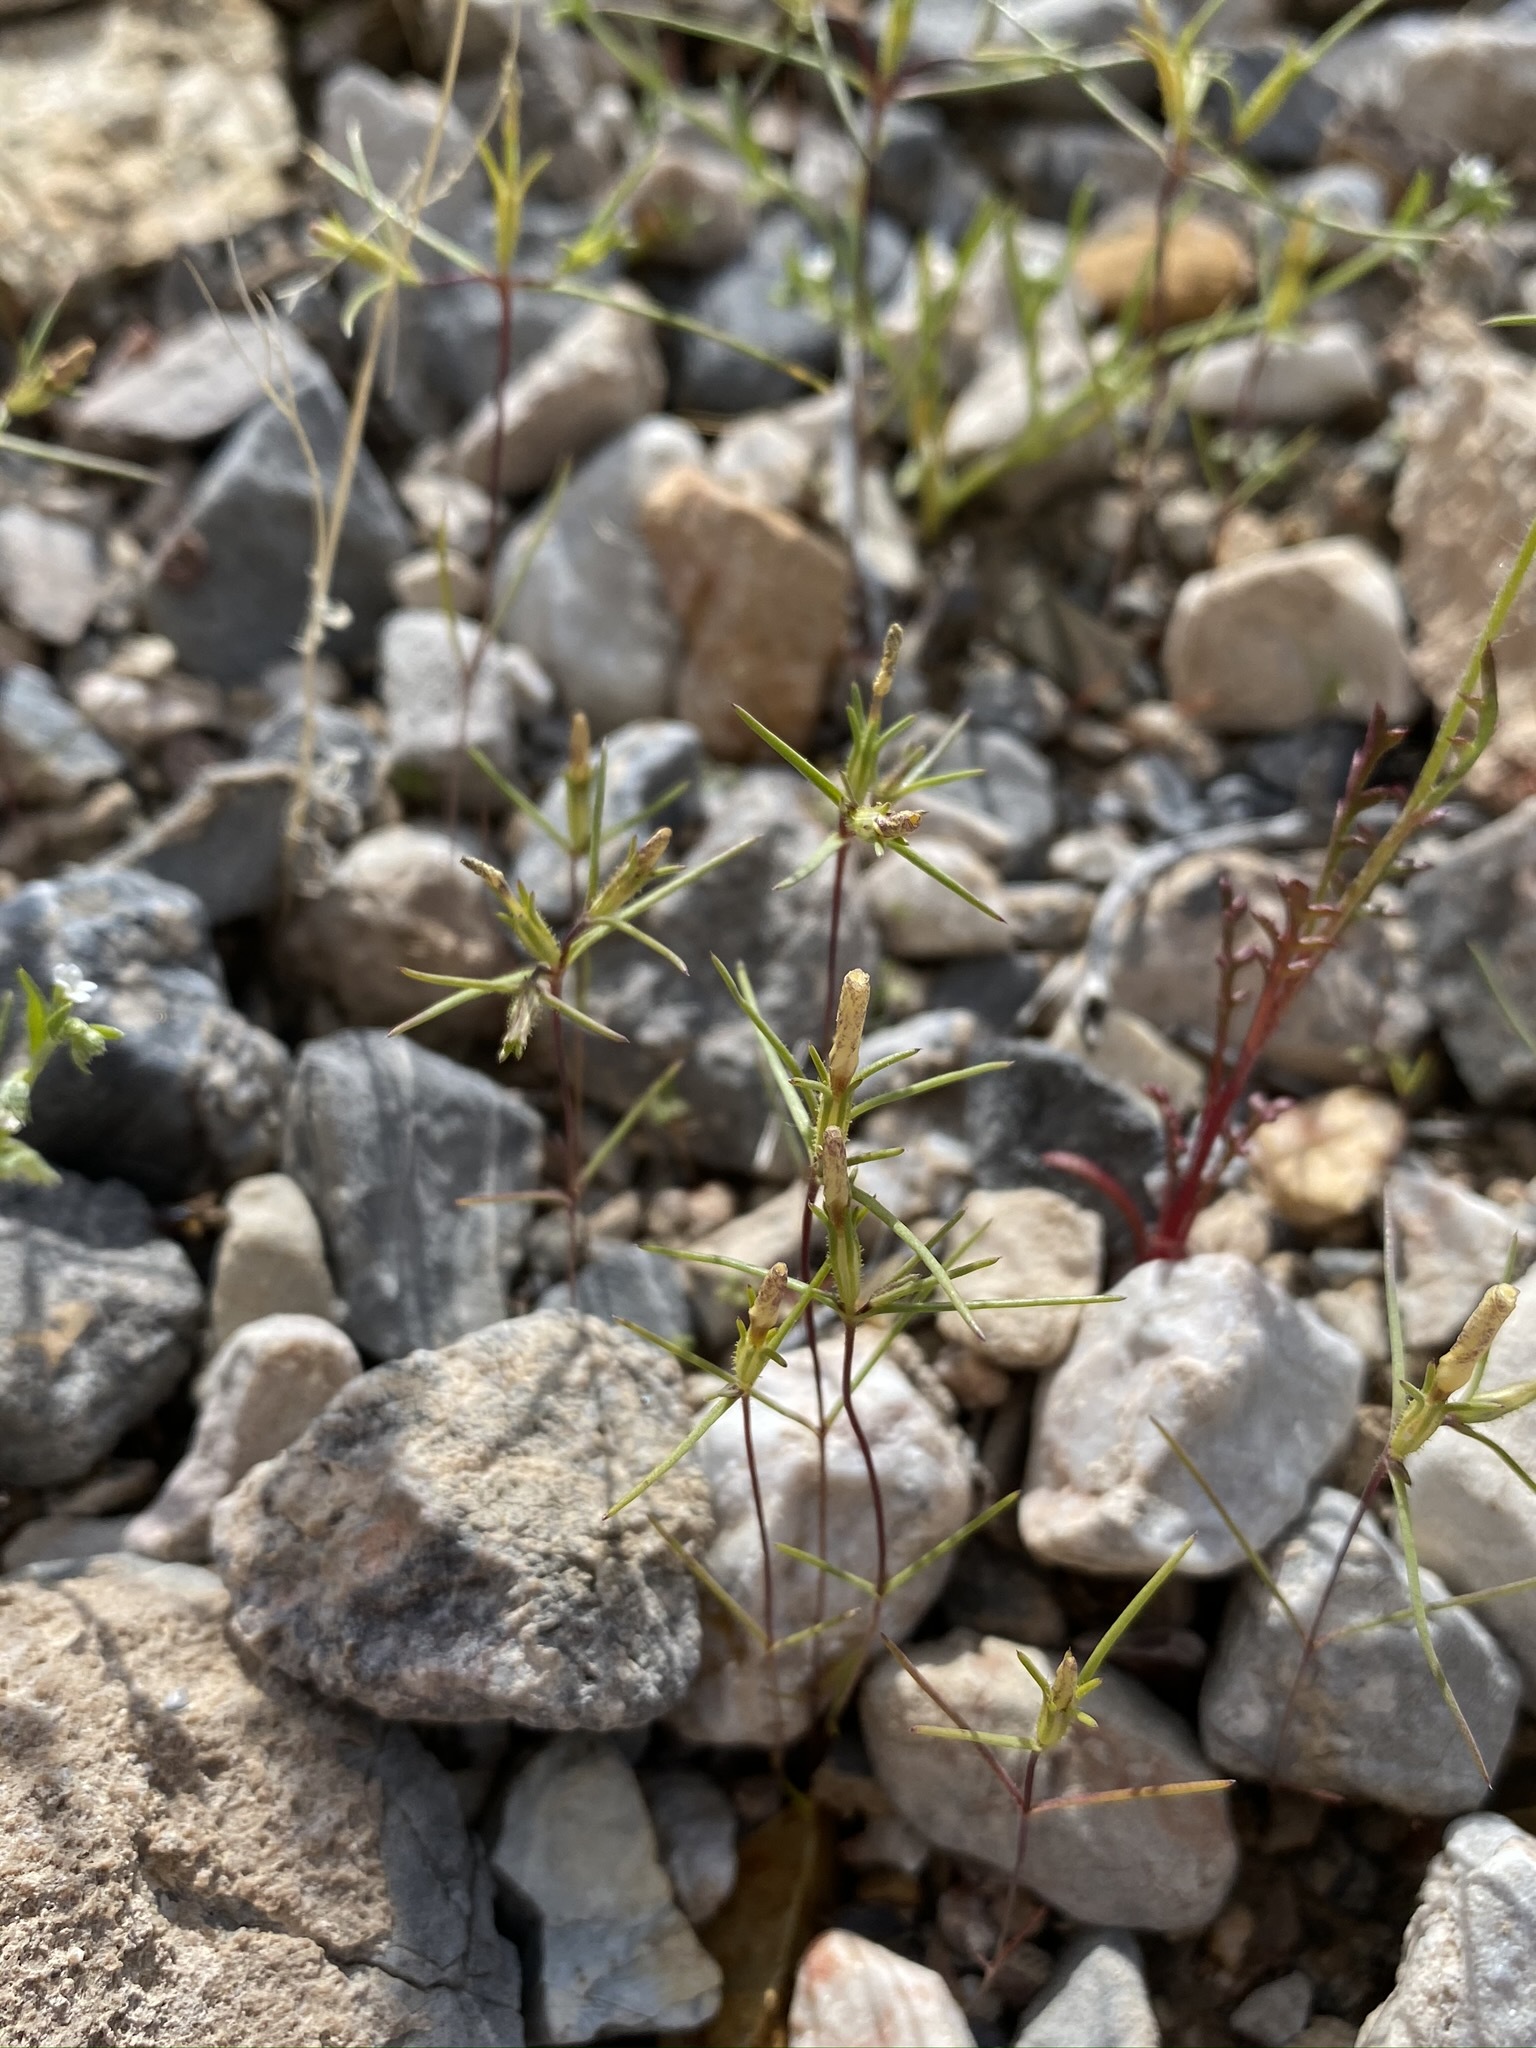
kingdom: Plantae
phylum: Tracheophyta
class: Magnoliopsida
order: Ericales
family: Polemoniaceae
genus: Linanthus
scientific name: Linanthus jonesii
